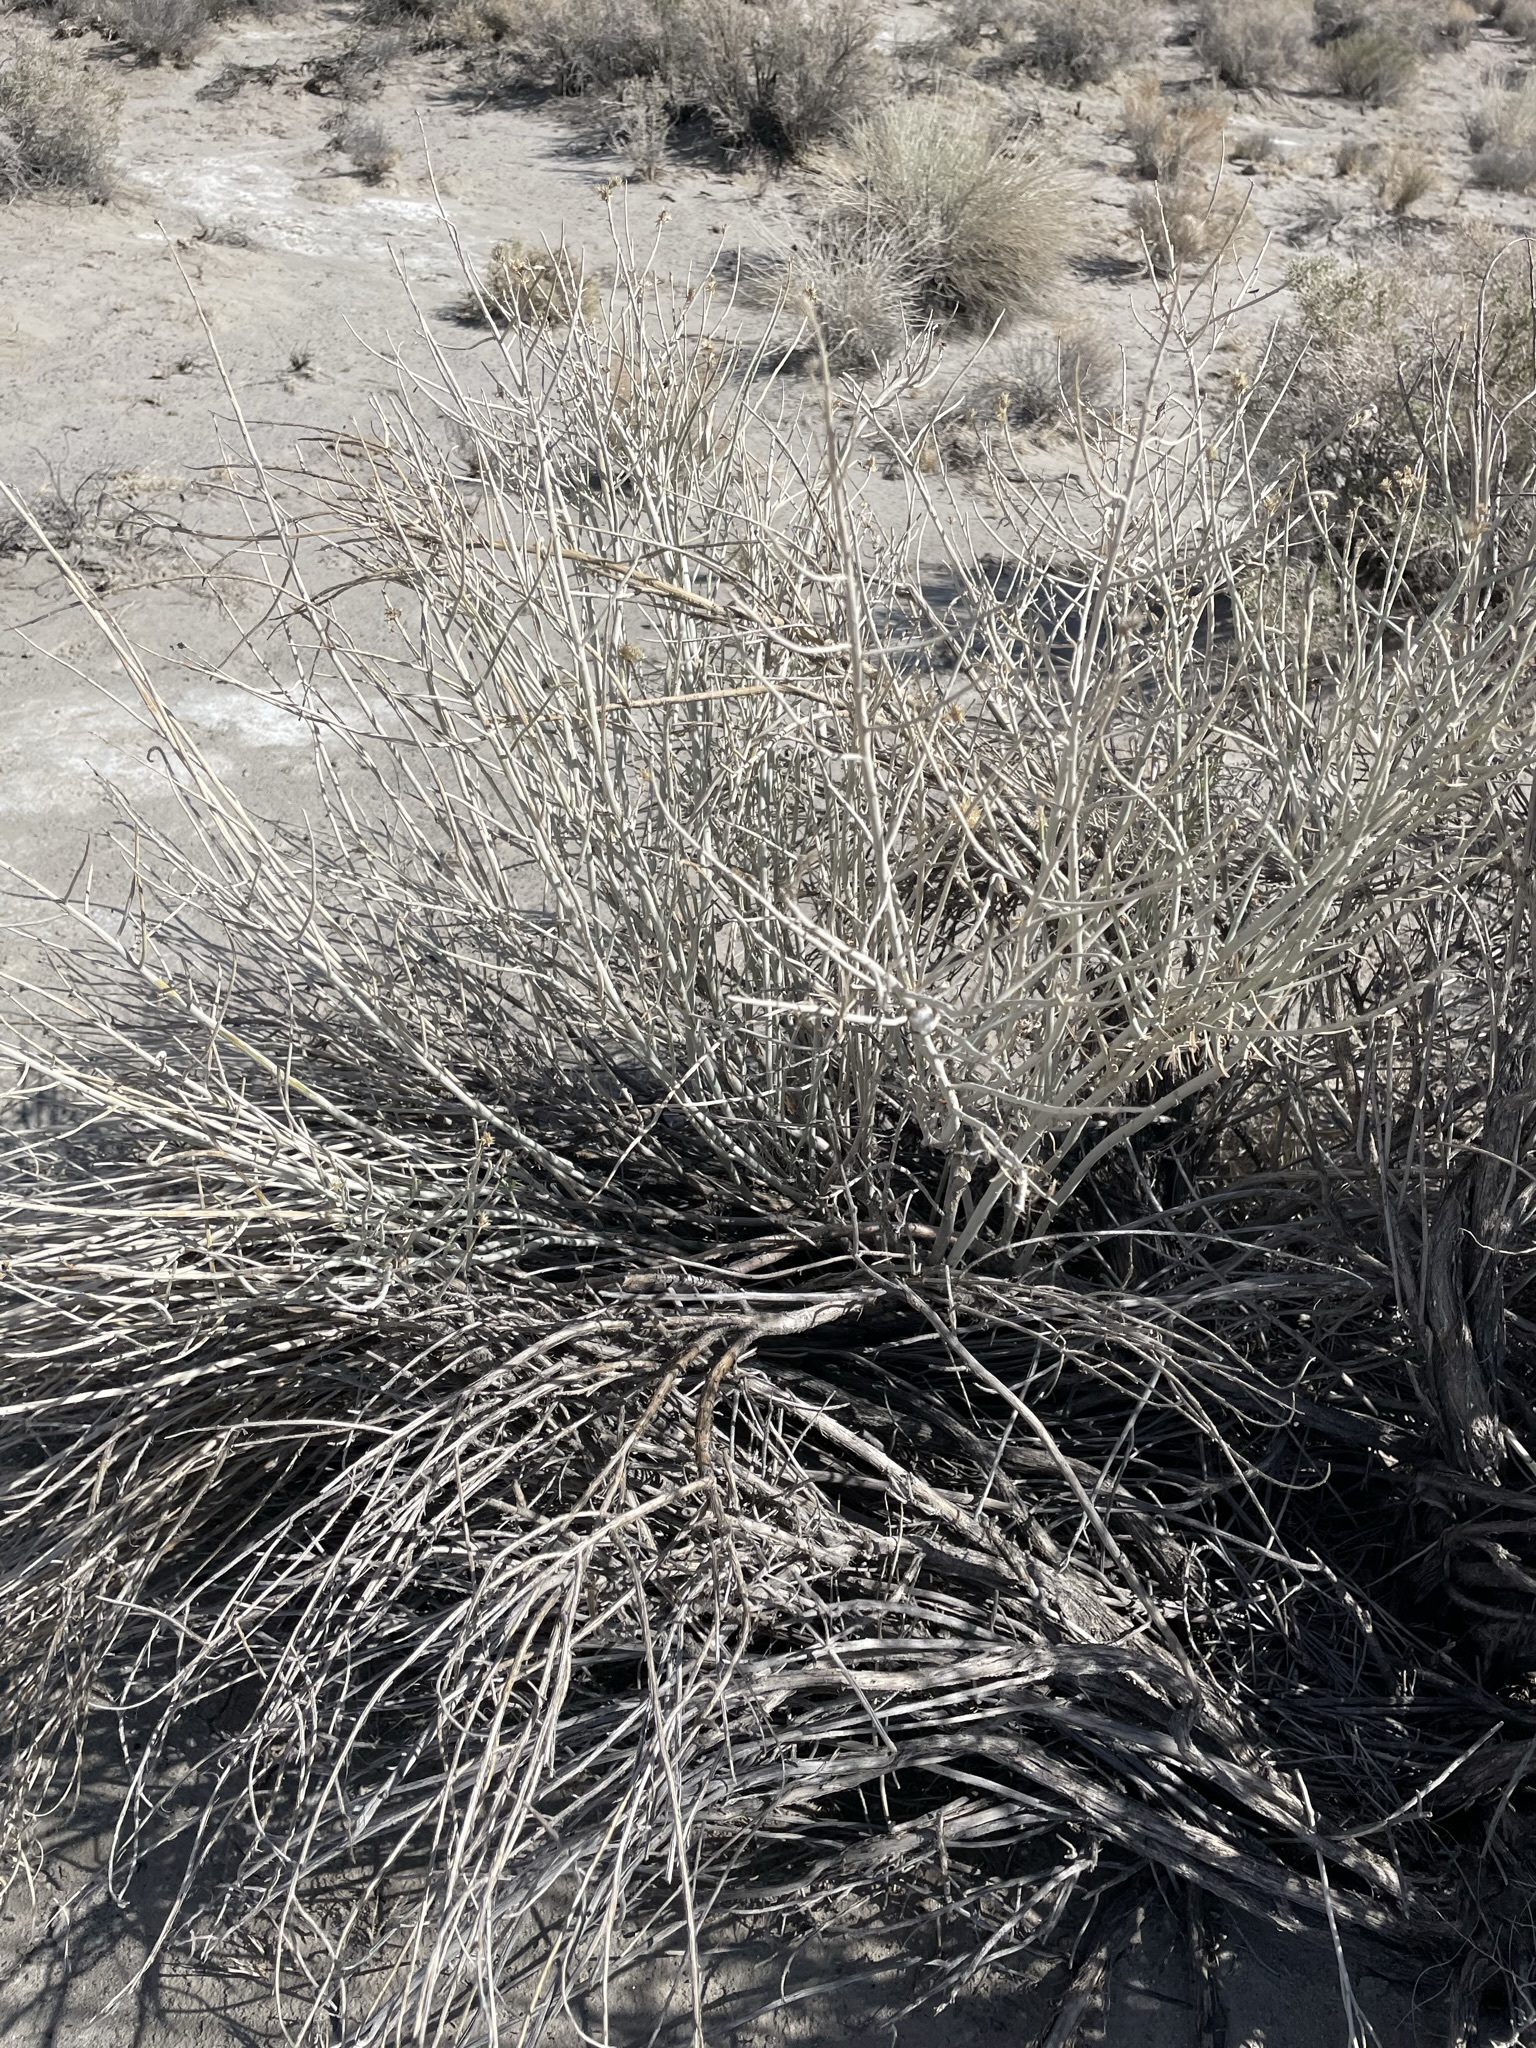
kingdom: Plantae
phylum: Tracheophyta
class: Magnoliopsida
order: Asterales
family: Asteraceae
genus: Ericameria
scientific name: Ericameria nauseosa
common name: Rubber rabbitbrush
